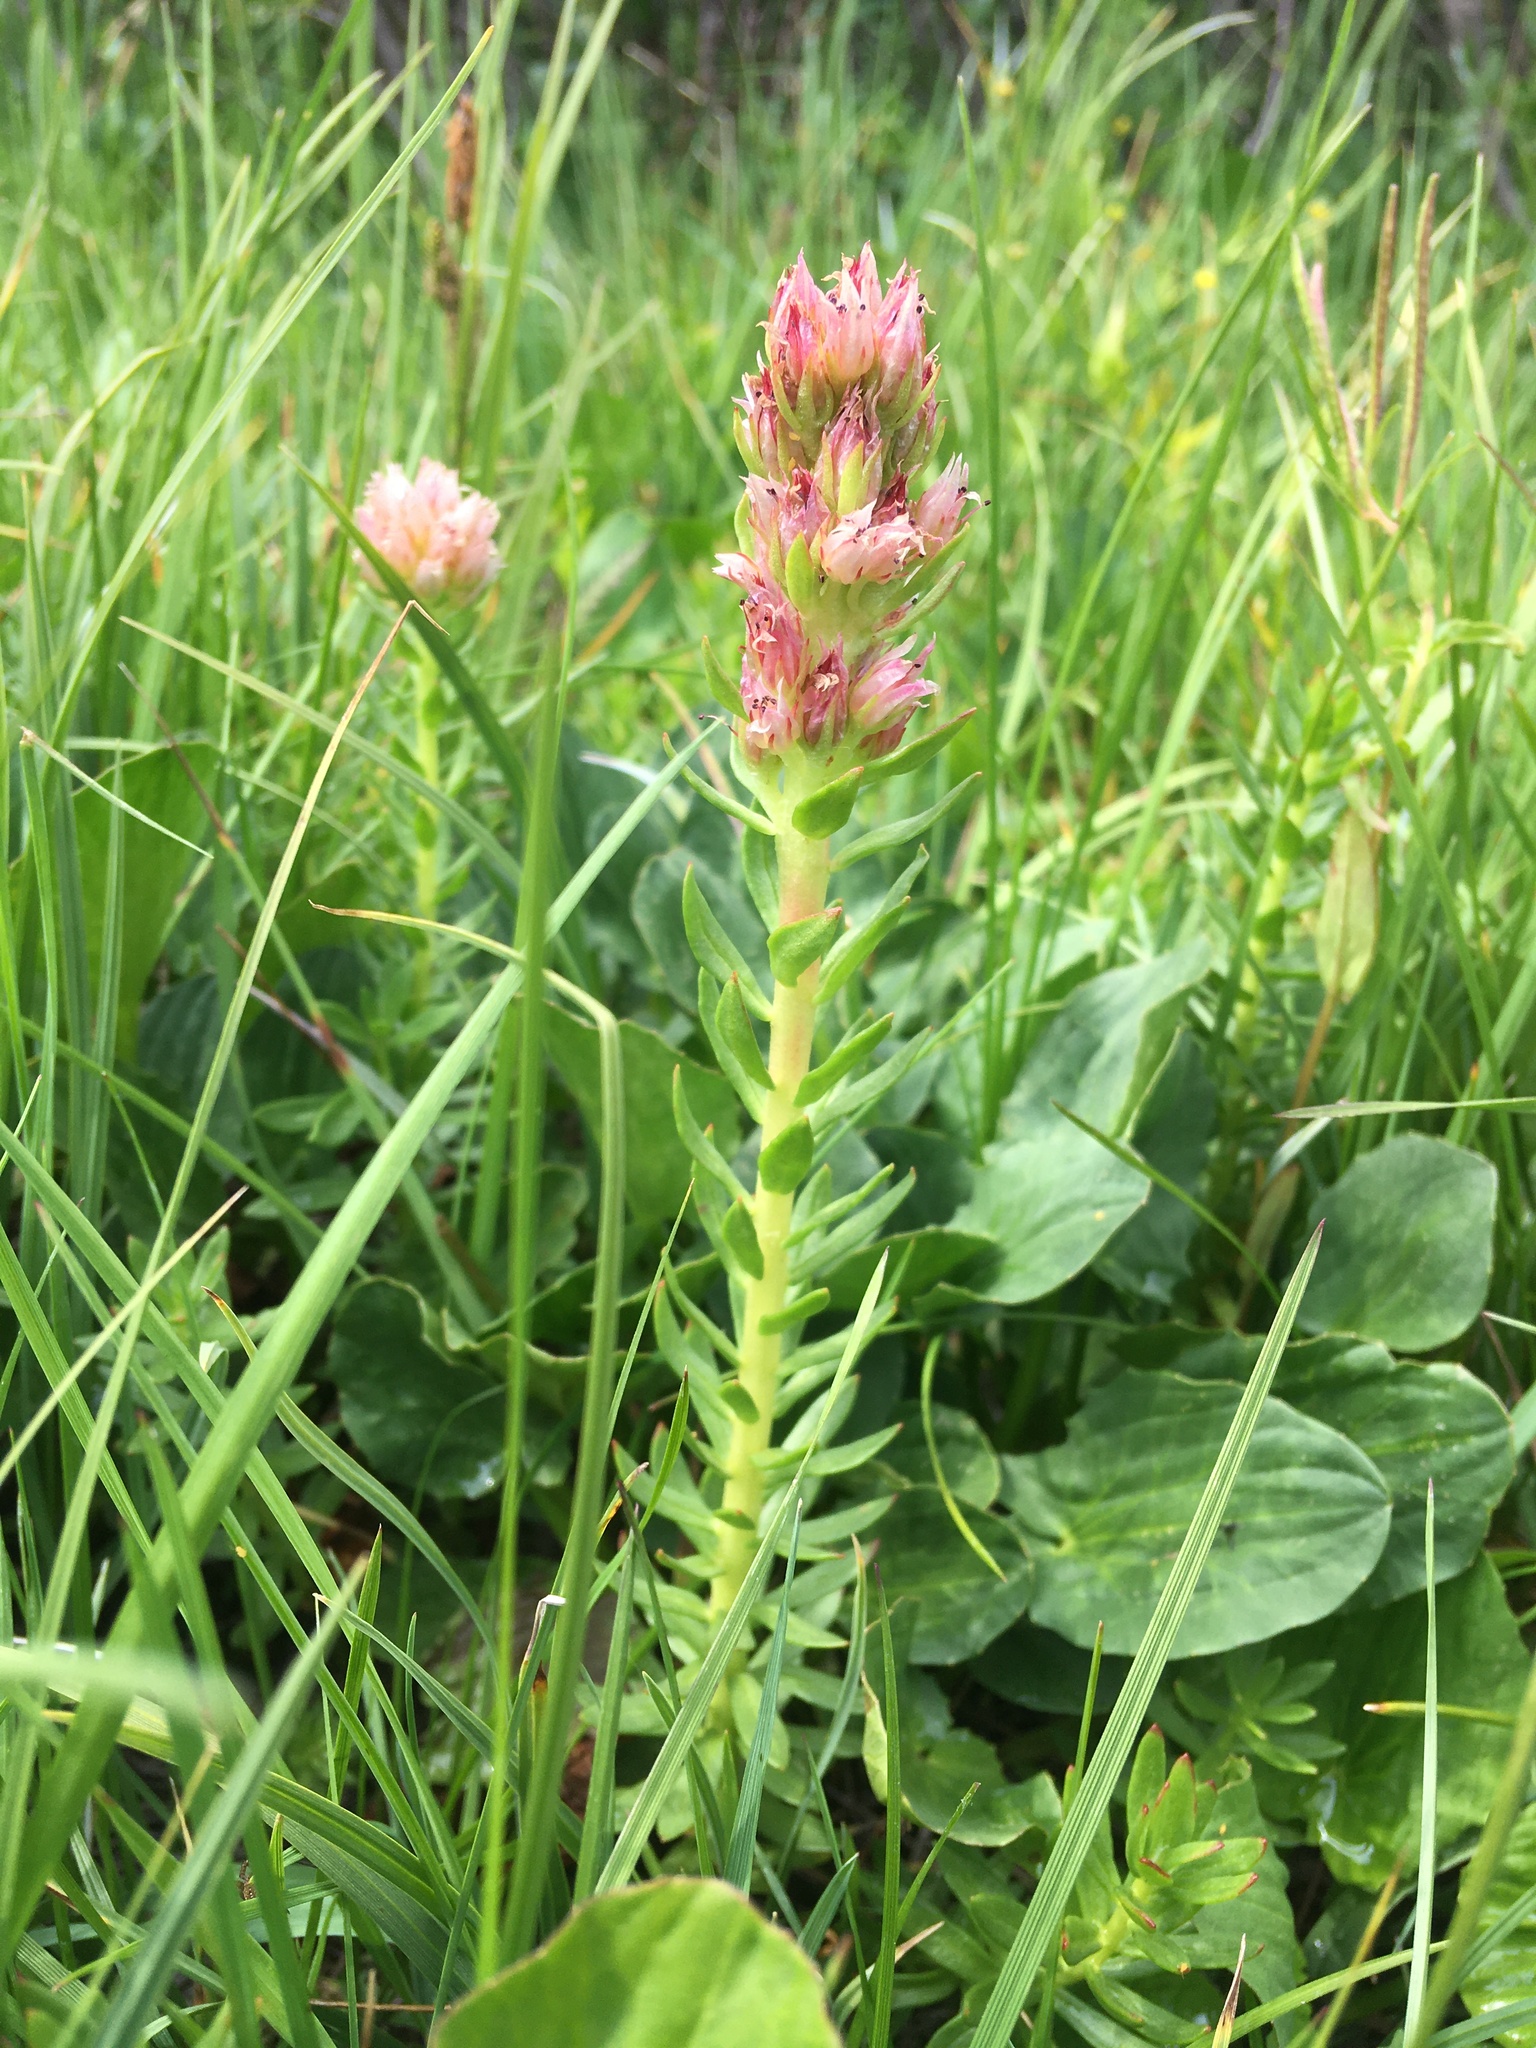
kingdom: Plantae
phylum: Tracheophyta
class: Magnoliopsida
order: Saxifragales
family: Crassulaceae
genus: Rhodiola
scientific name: Rhodiola rhodantha
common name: Red orpine
